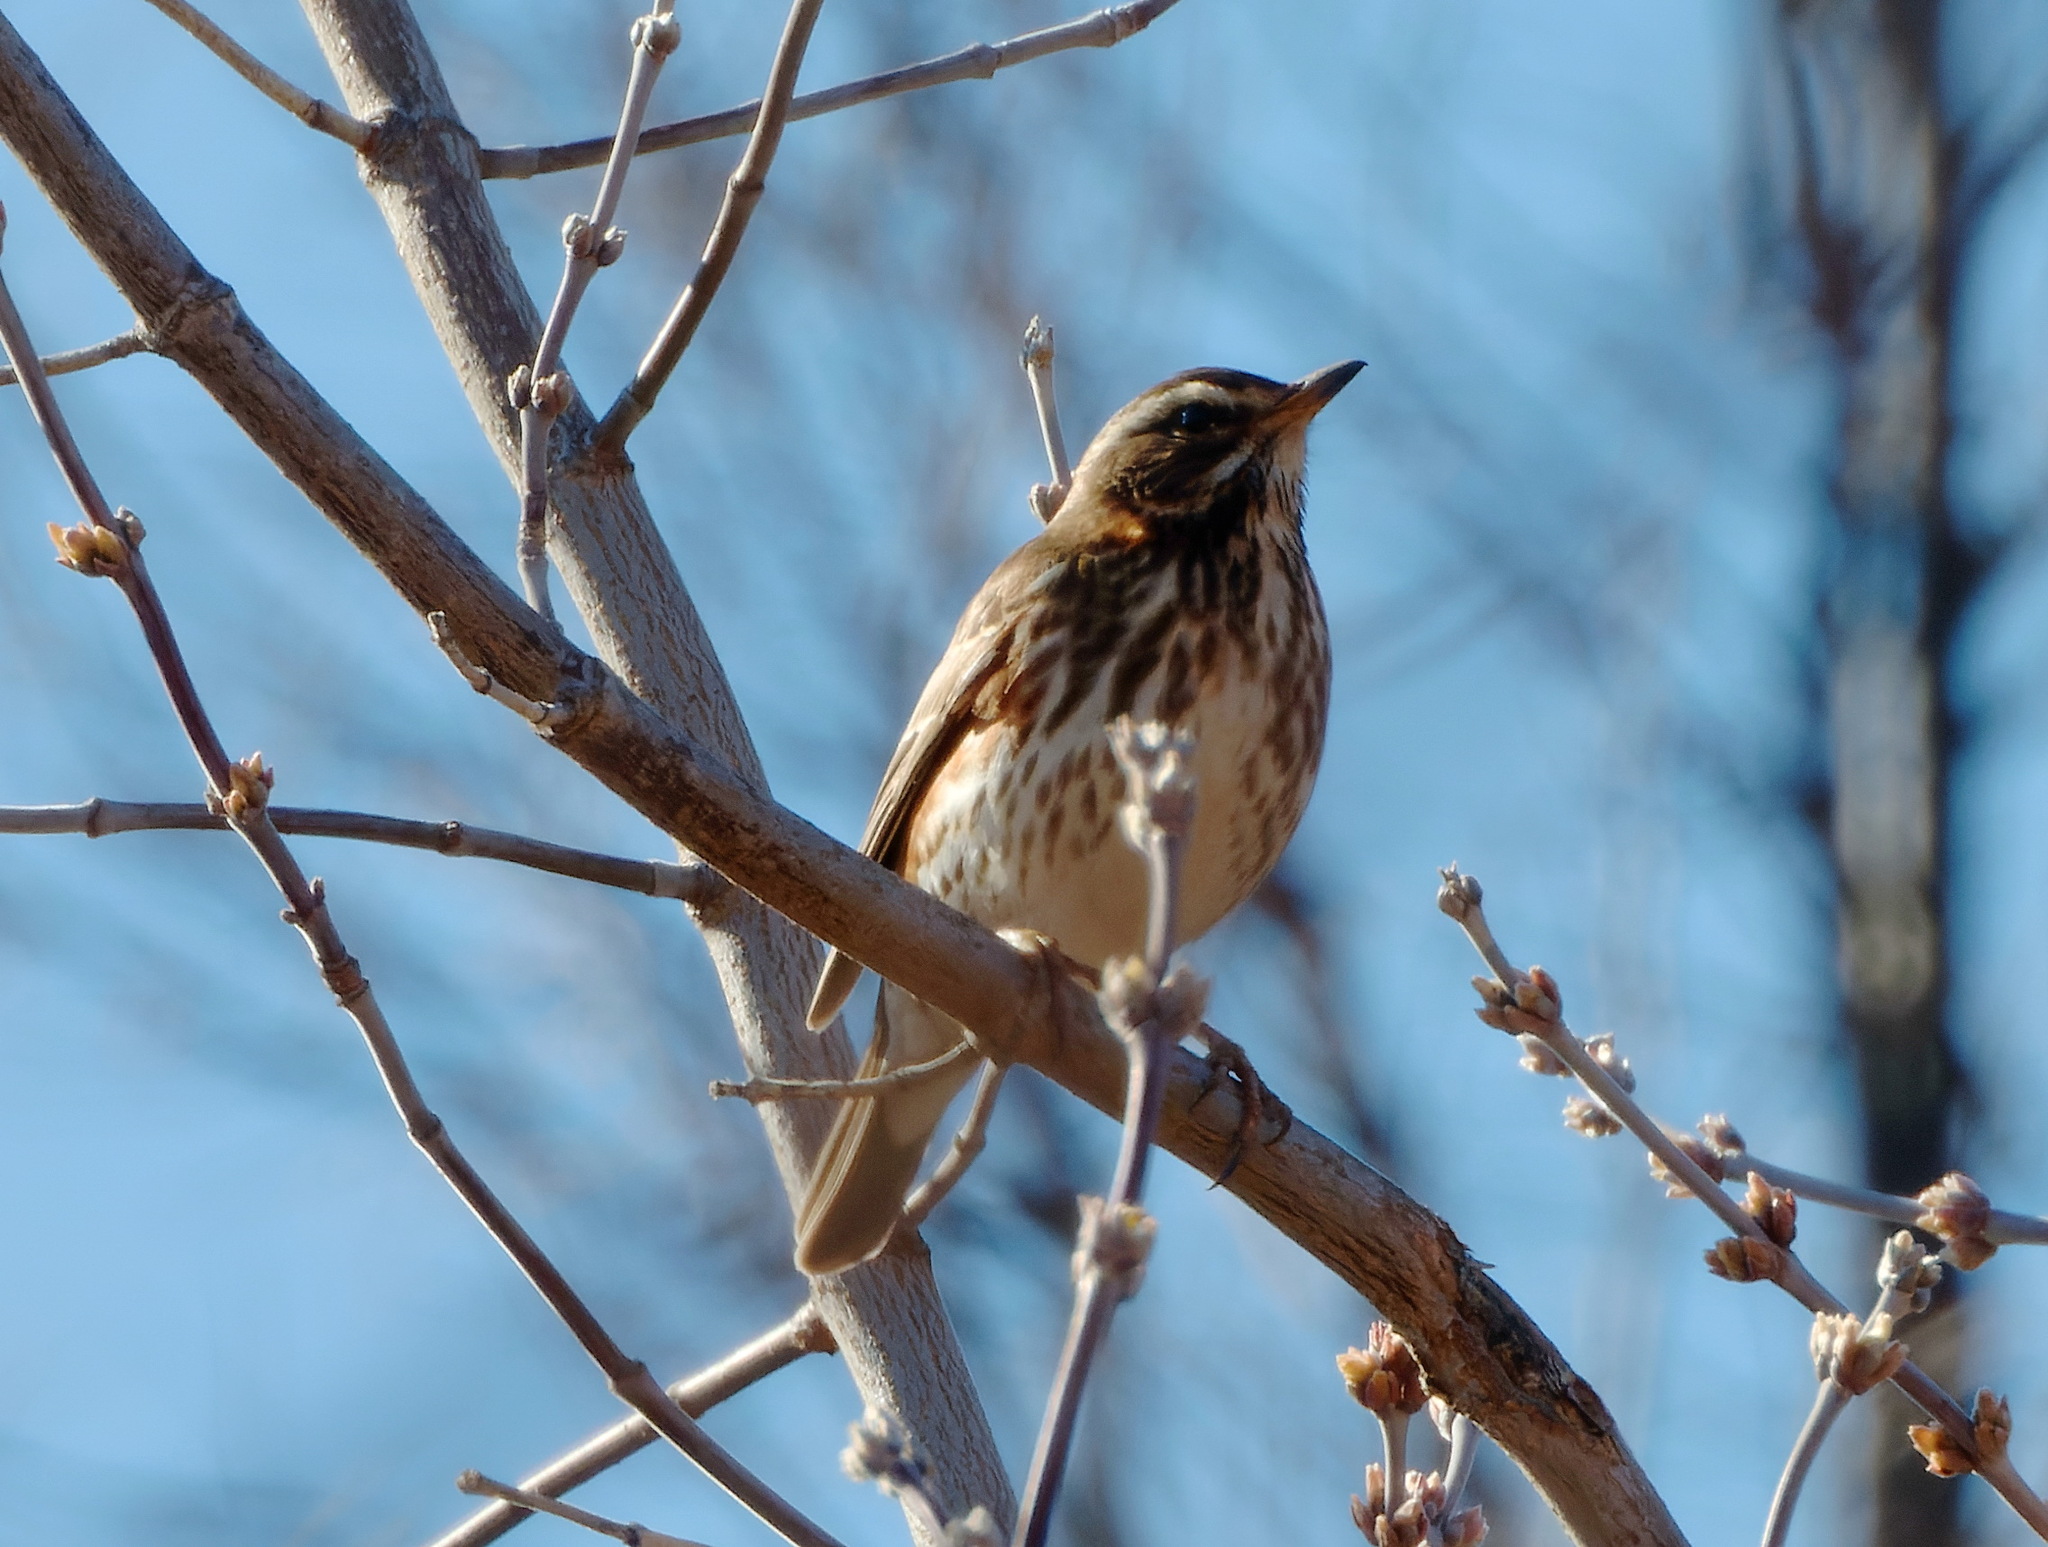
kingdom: Animalia
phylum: Chordata
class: Aves
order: Passeriformes
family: Turdidae
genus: Turdus
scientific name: Turdus iliacus
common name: Redwing
